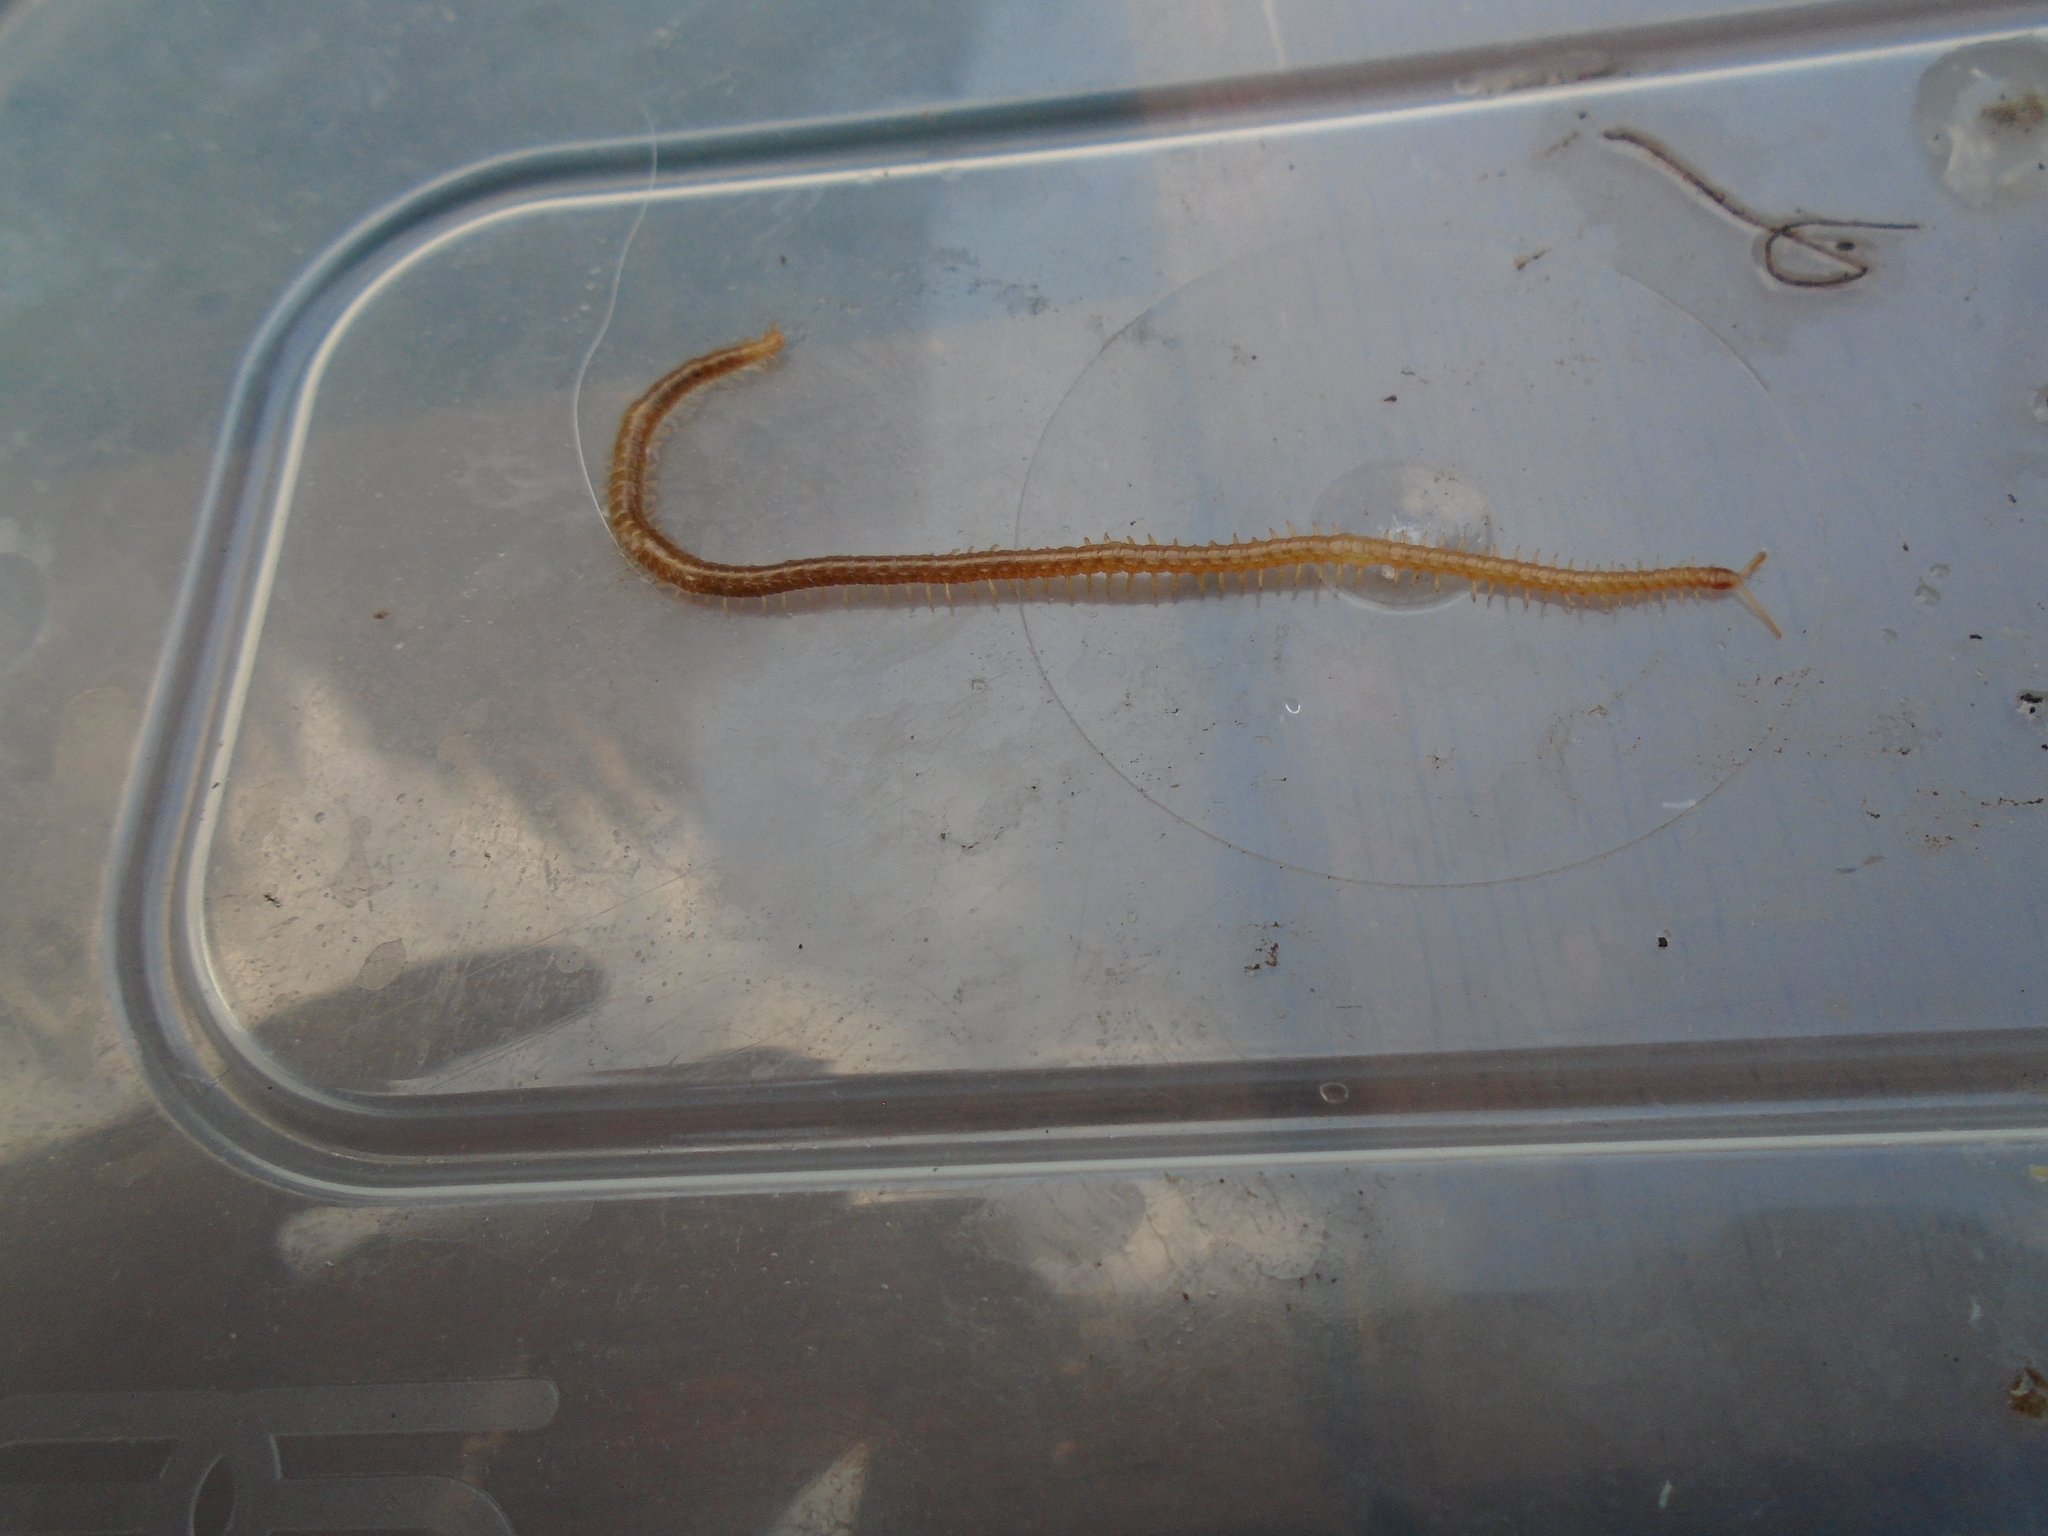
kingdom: Animalia
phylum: Arthropoda
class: Chilopoda
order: Geophilomorpha
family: Himantariidae
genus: Stigmatogaster
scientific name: Stigmatogaster subterranea
